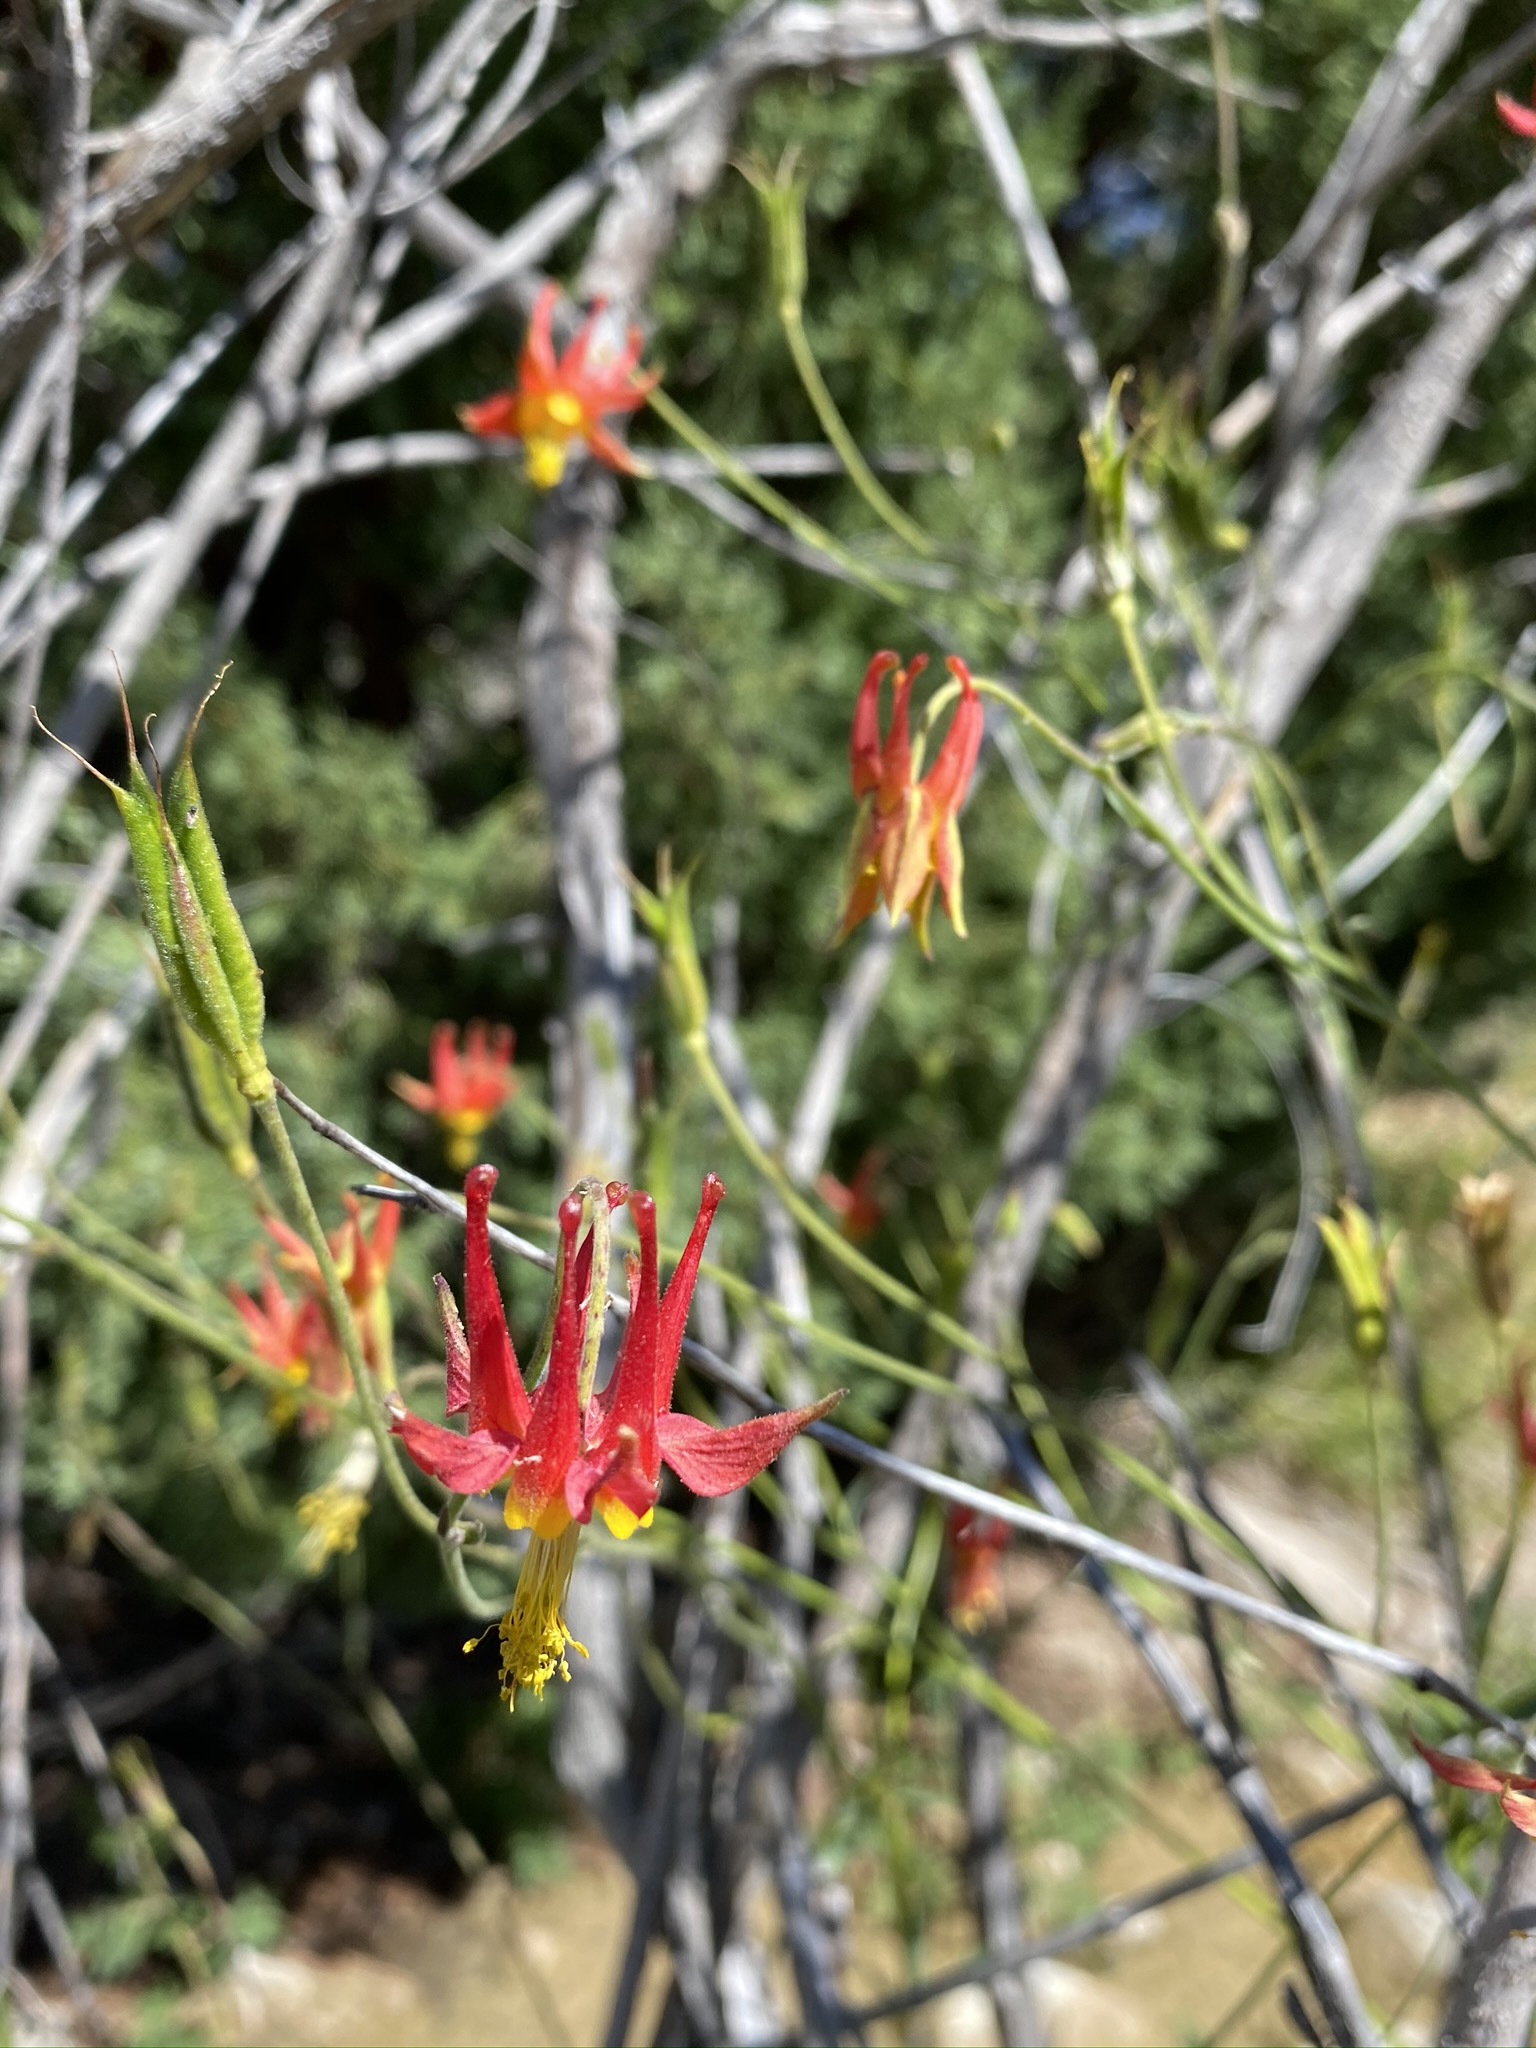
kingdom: Plantae
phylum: Tracheophyta
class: Magnoliopsida
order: Ranunculales
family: Ranunculaceae
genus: Aquilegia
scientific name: Aquilegia formosa
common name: Sitka columbine
